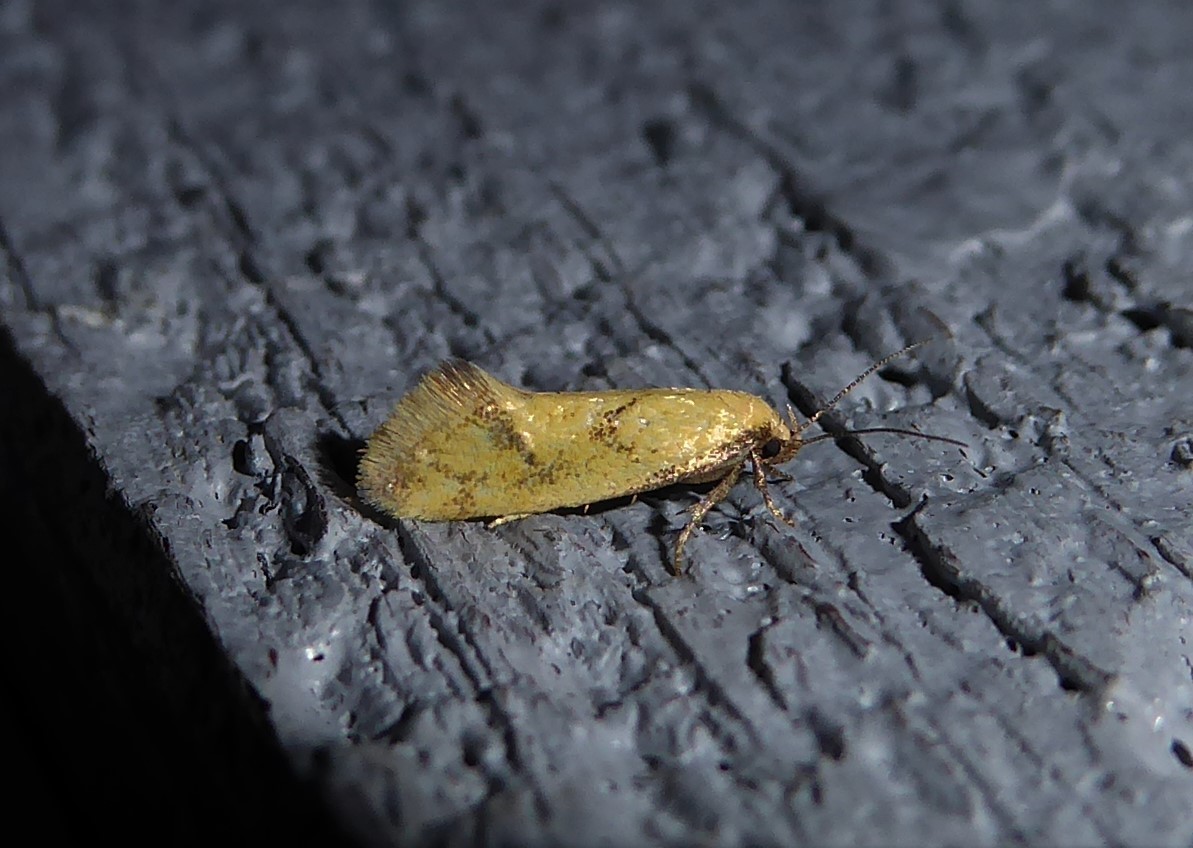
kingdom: Animalia
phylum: Arthropoda
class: Insecta
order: Lepidoptera
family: Oecophoridae
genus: Tingena
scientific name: Tingena actinias
